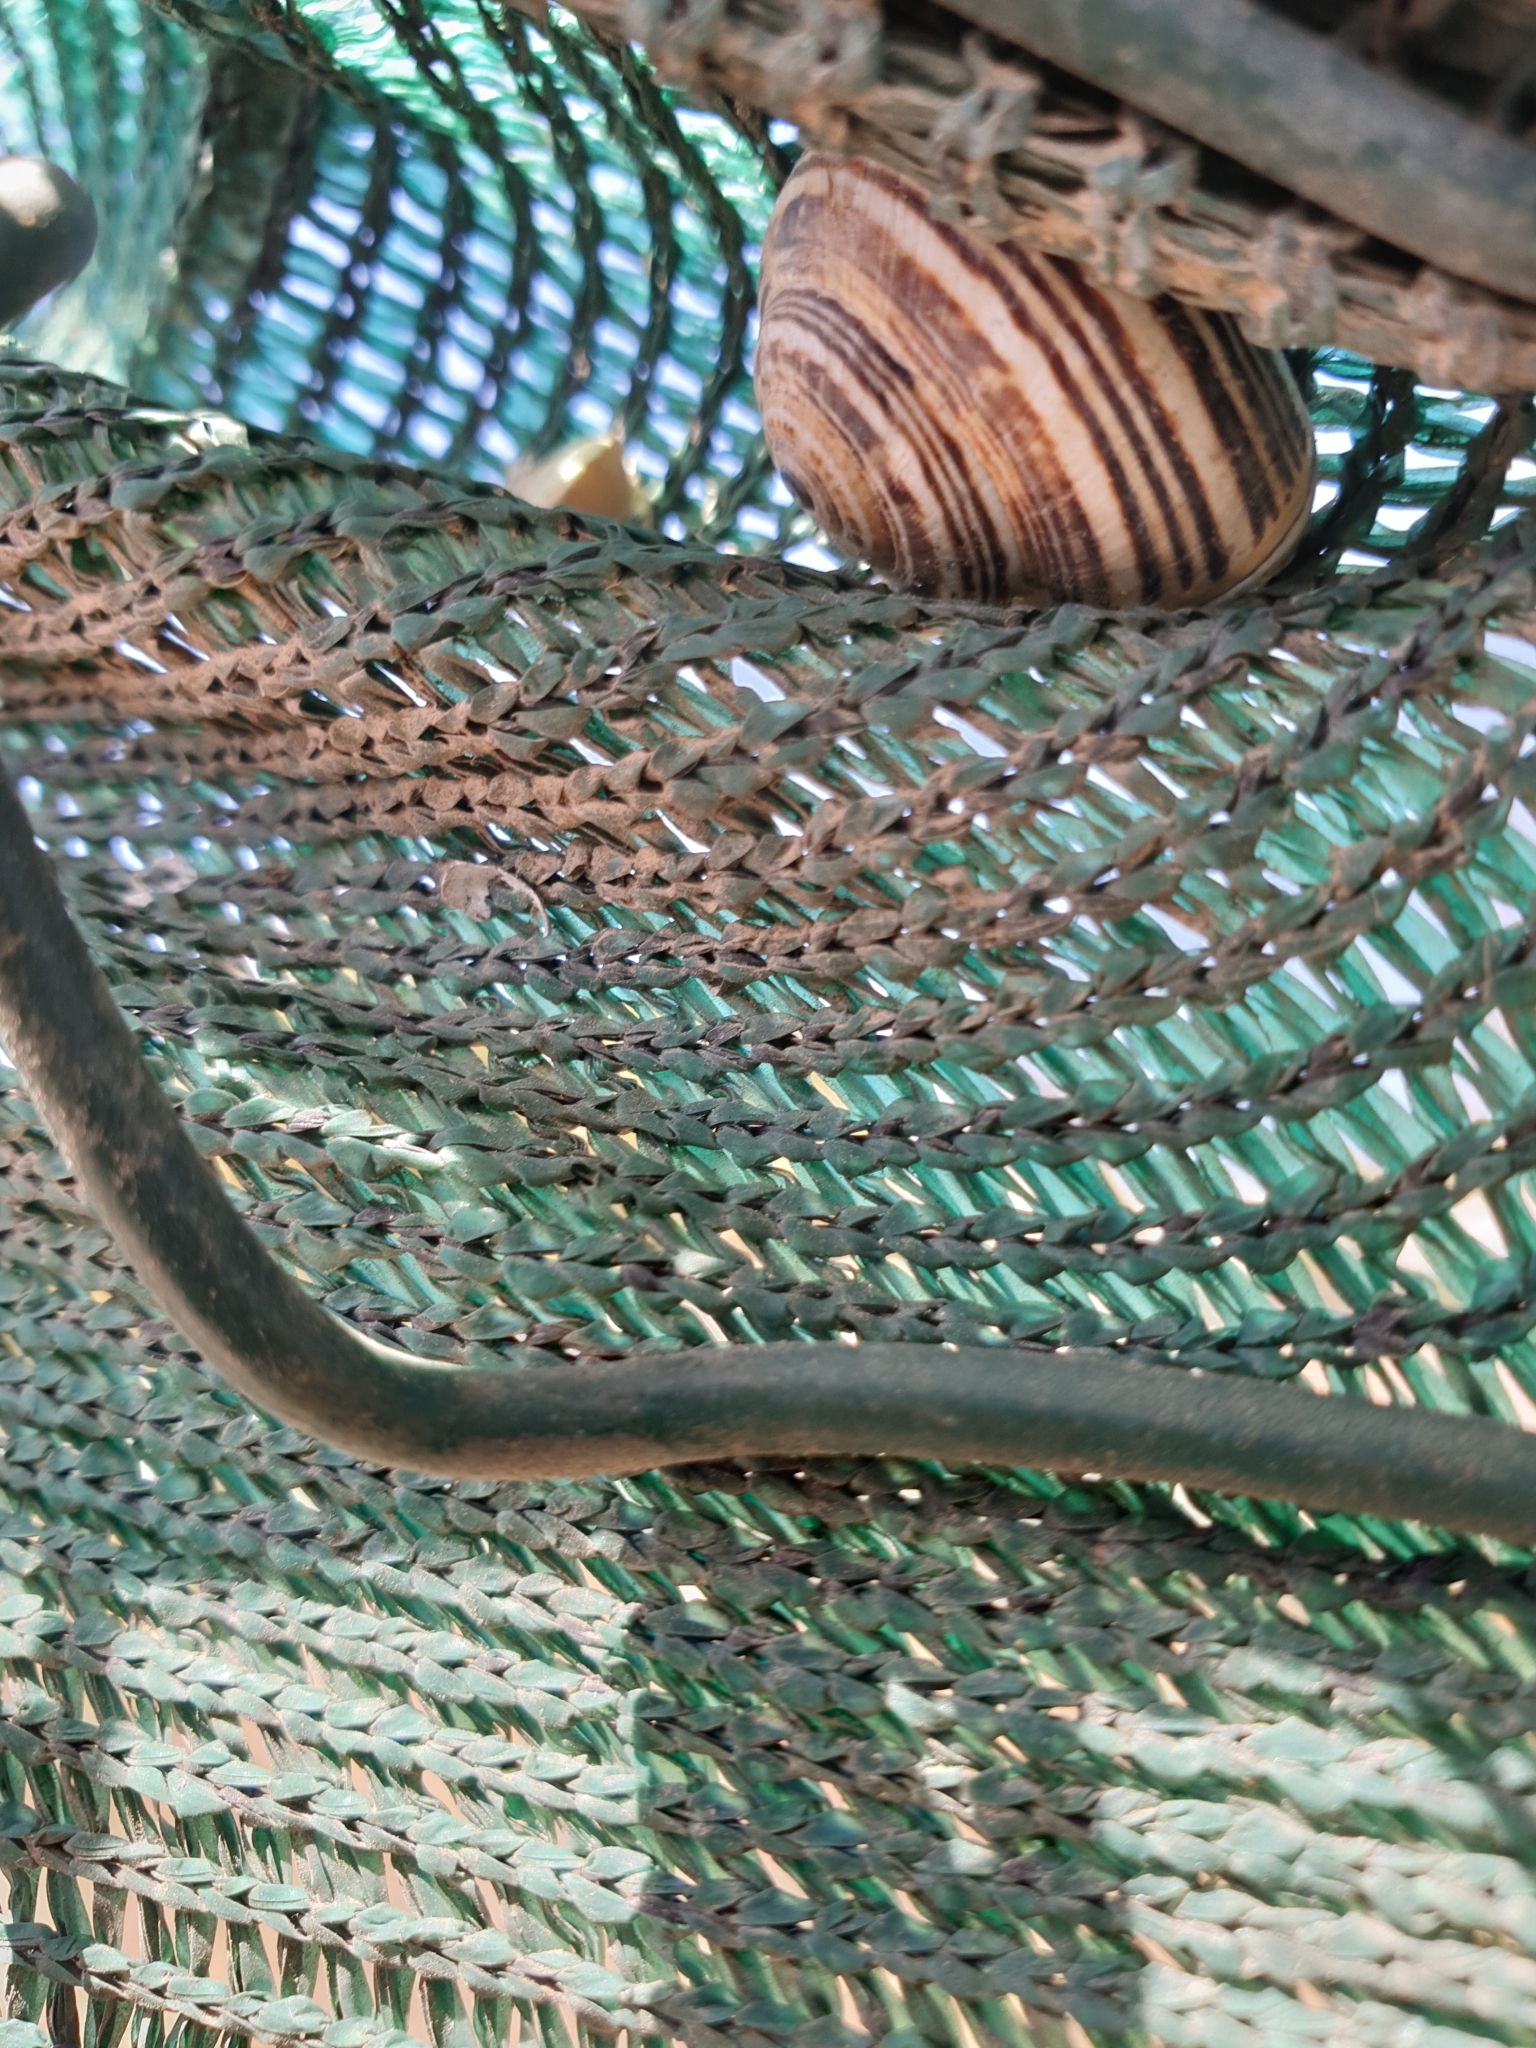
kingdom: Animalia
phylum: Mollusca
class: Gastropoda
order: Stylommatophora
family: Helicidae
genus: Theba
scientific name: Theba pisana
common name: White snail
